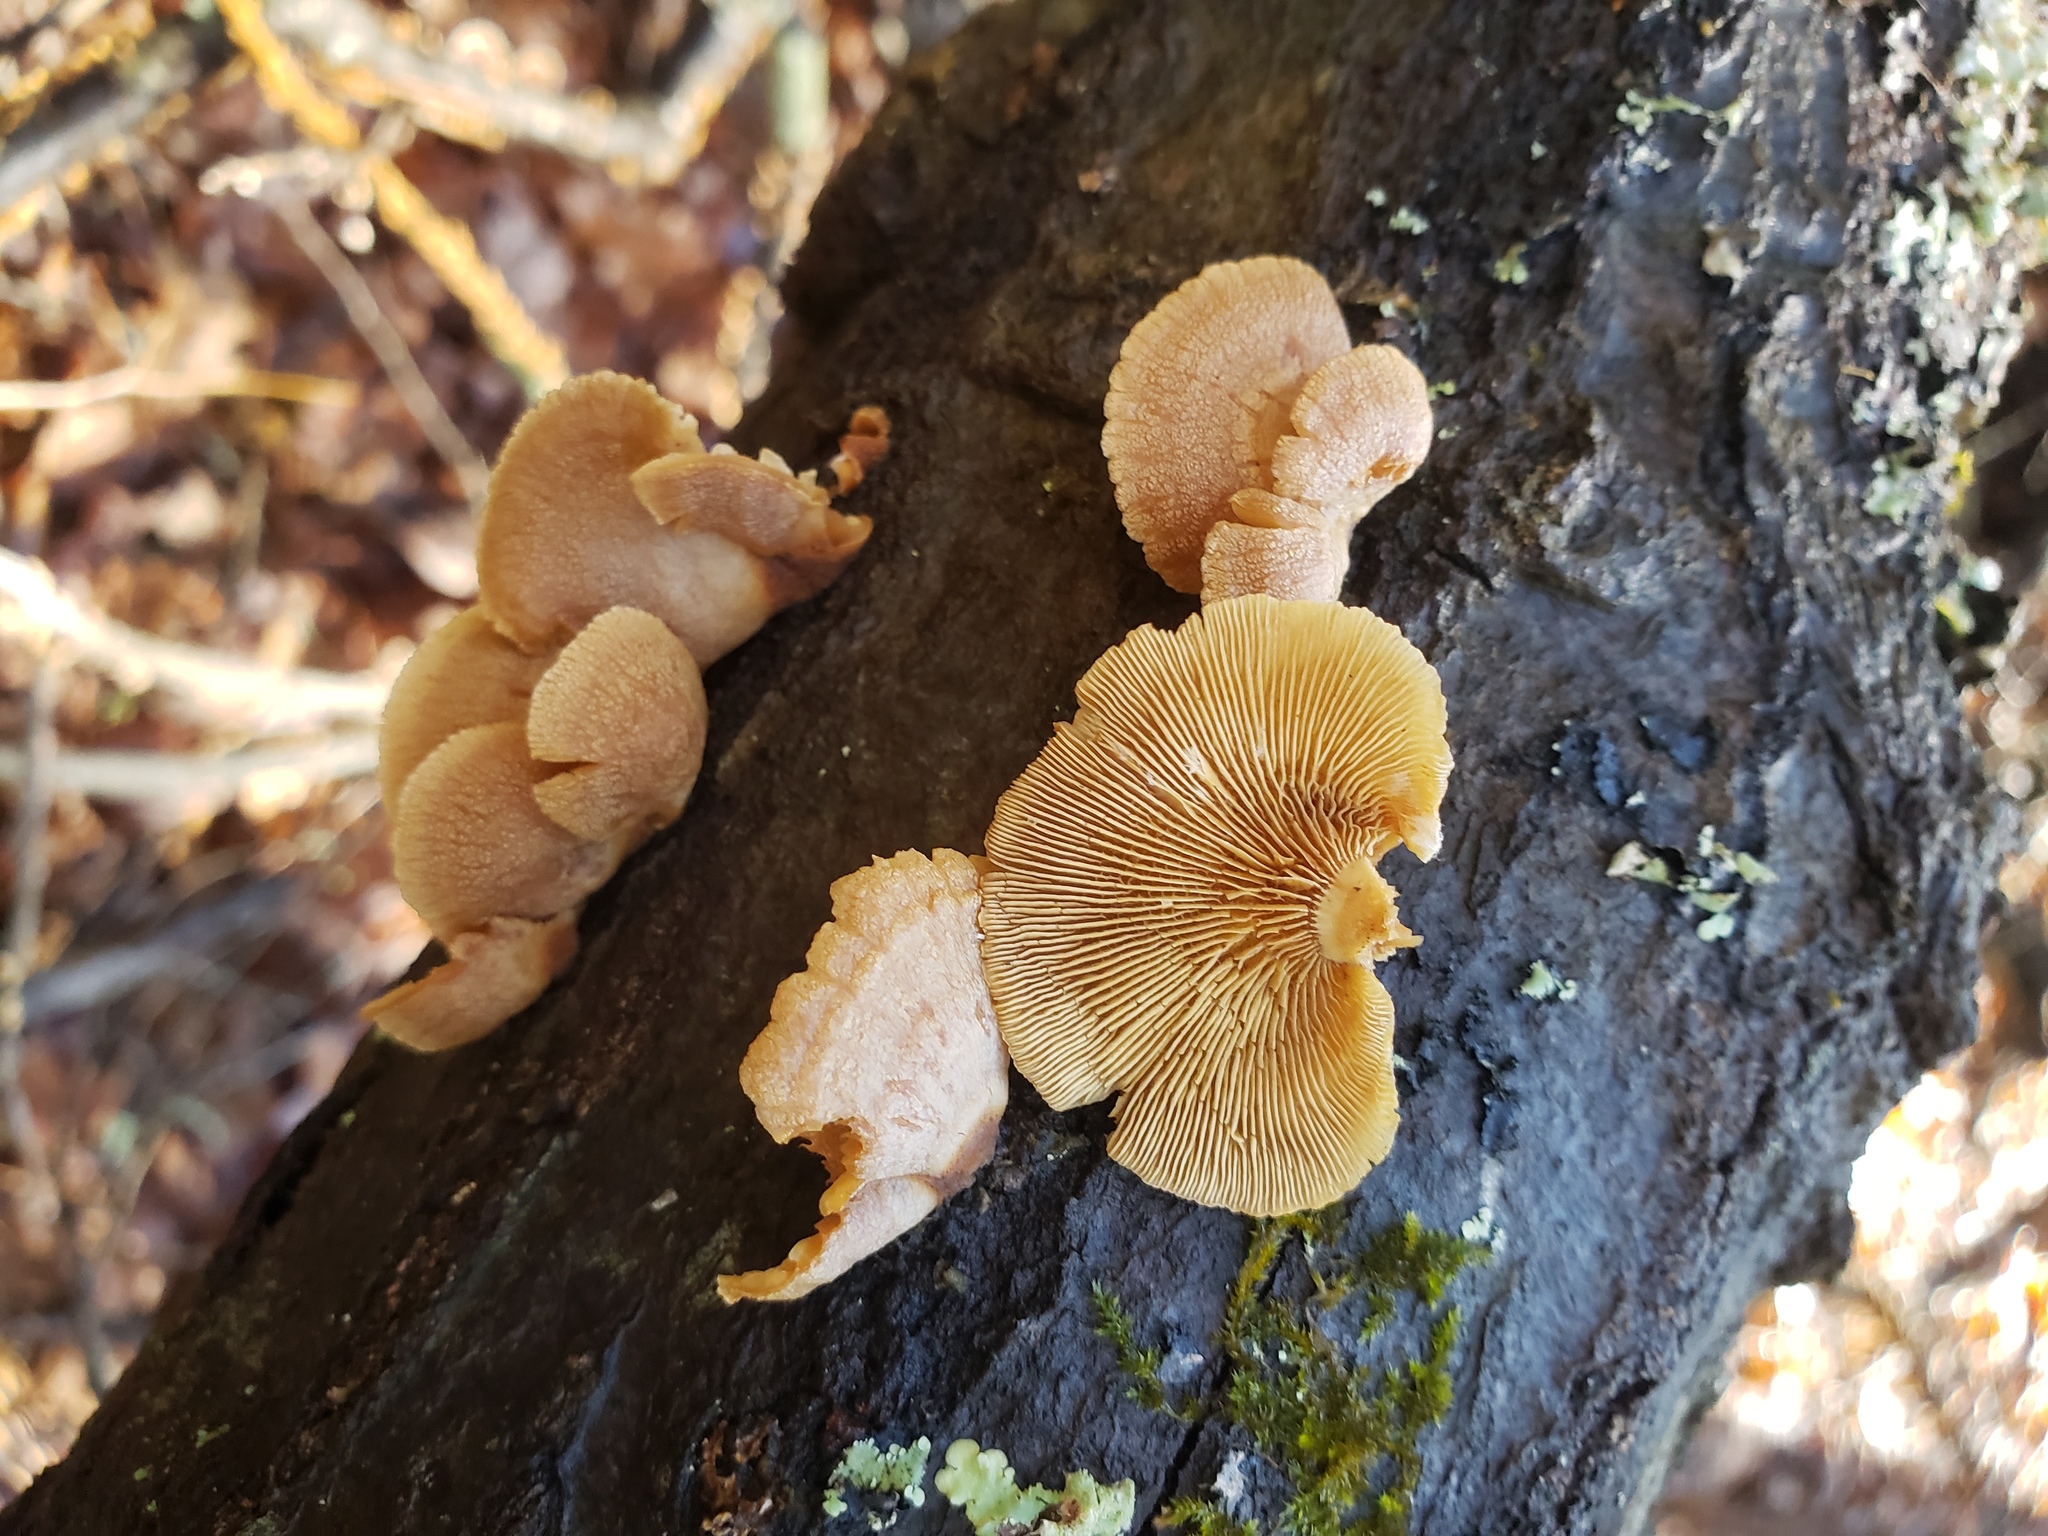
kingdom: Fungi
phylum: Basidiomycota
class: Agaricomycetes
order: Agaricales
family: Mycenaceae
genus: Panellus
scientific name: Panellus stipticus
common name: Bitter oysterling
